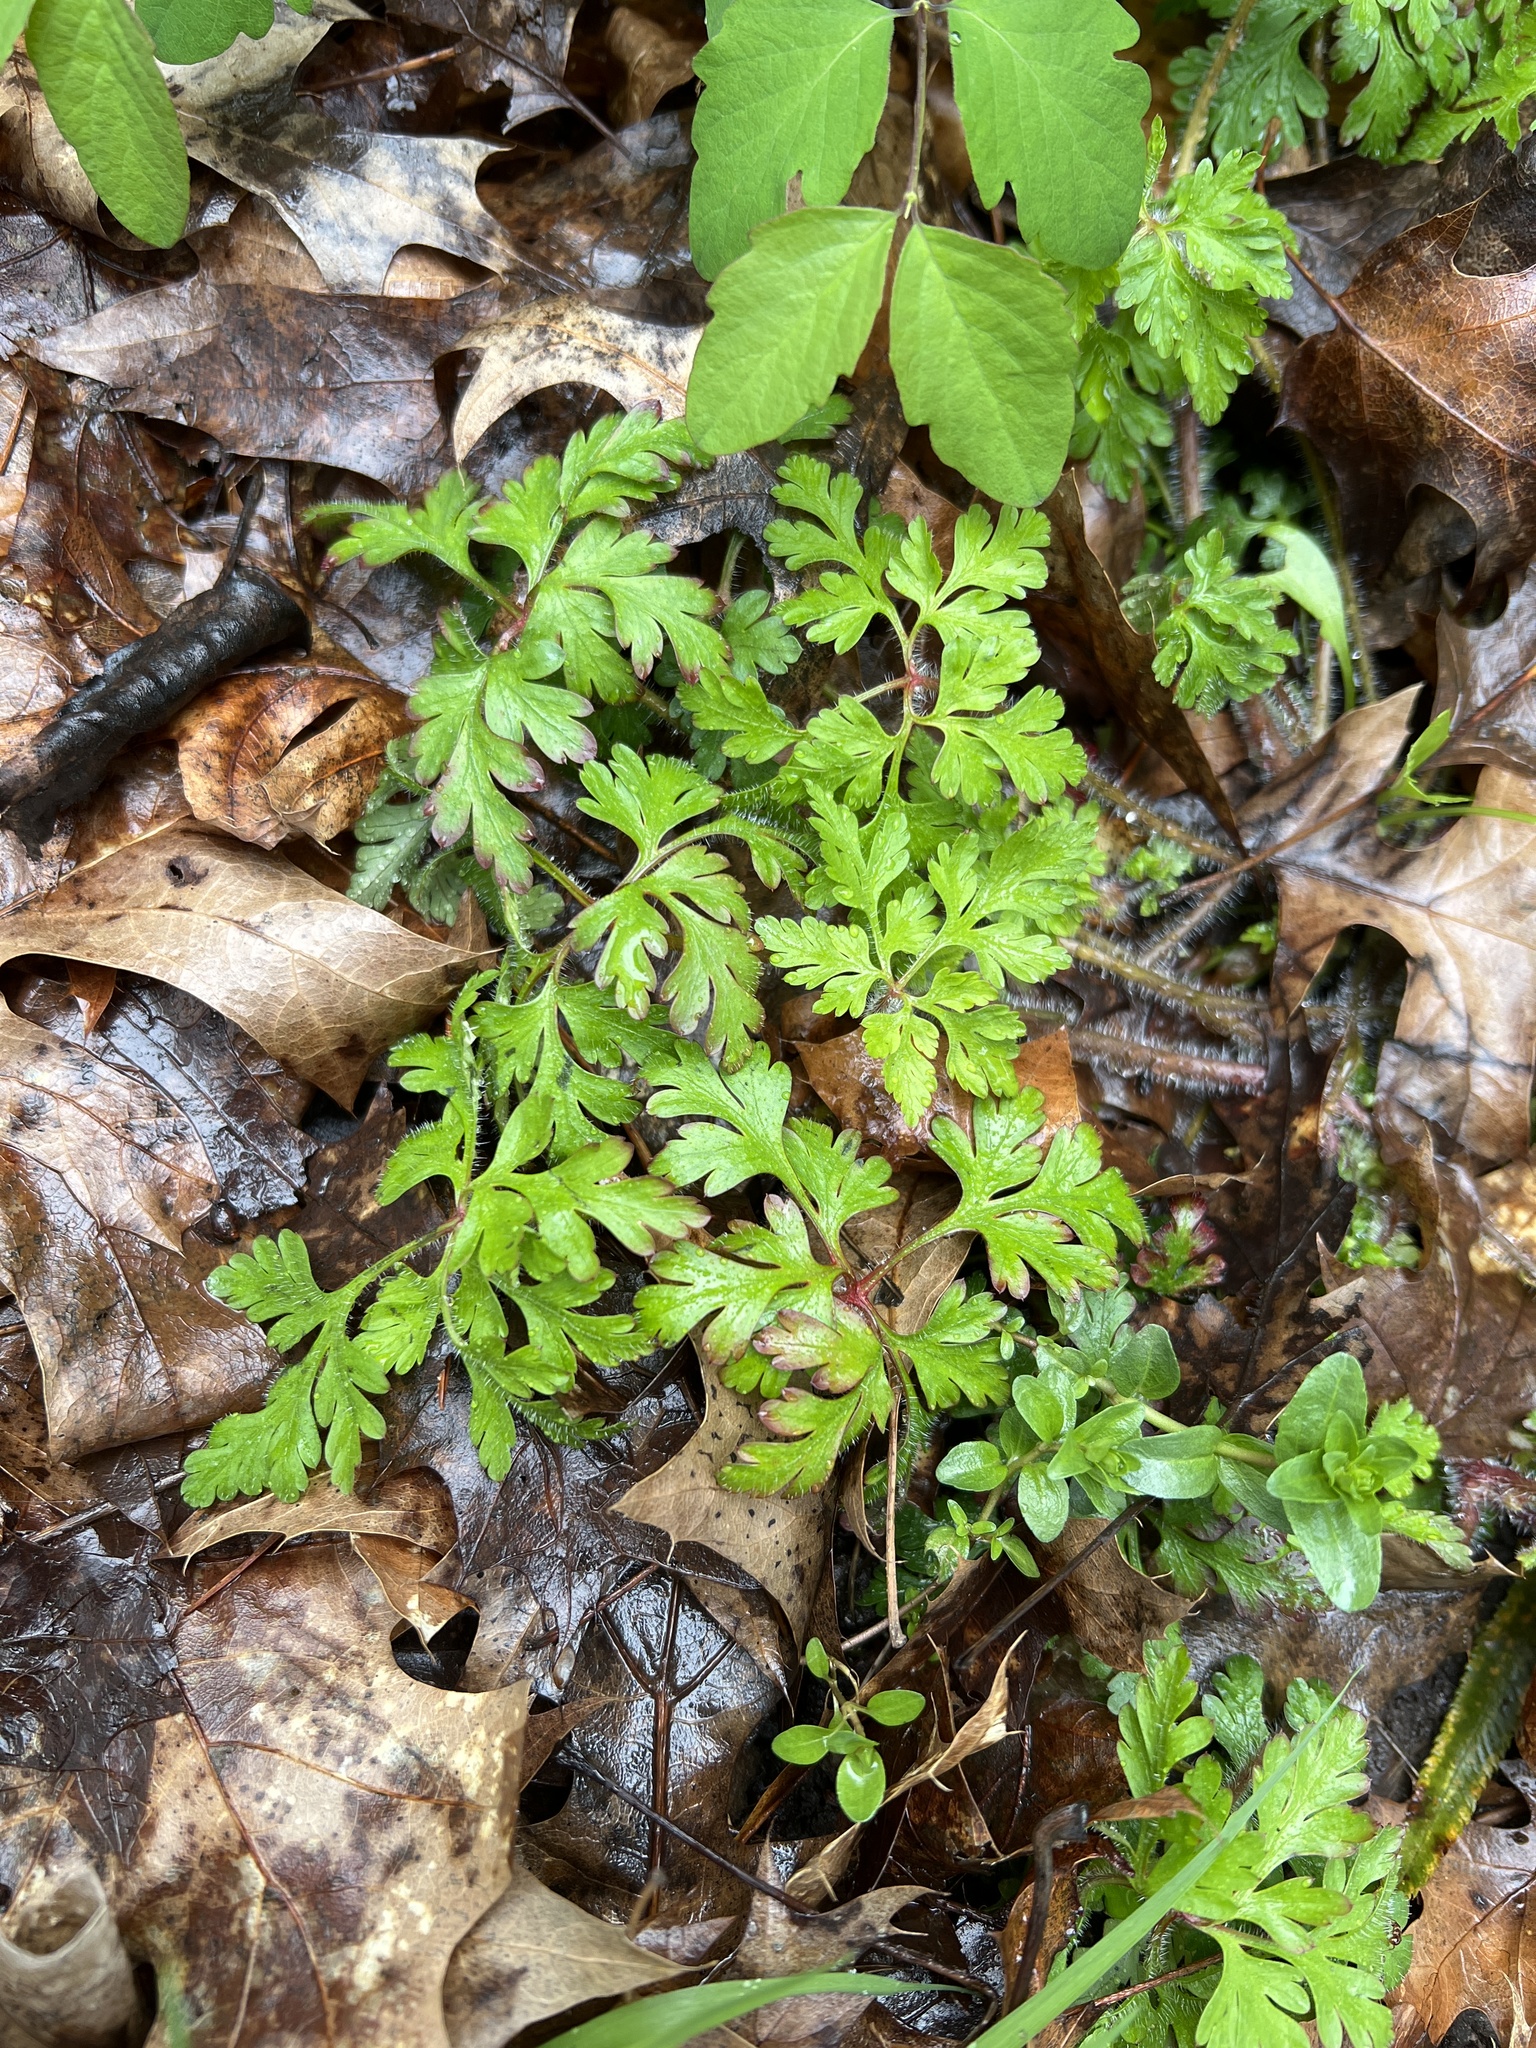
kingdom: Plantae
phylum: Tracheophyta
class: Magnoliopsida
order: Geraniales
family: Geraniaceae
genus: Geranium
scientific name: Geranium robertianum
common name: Herb-robert
